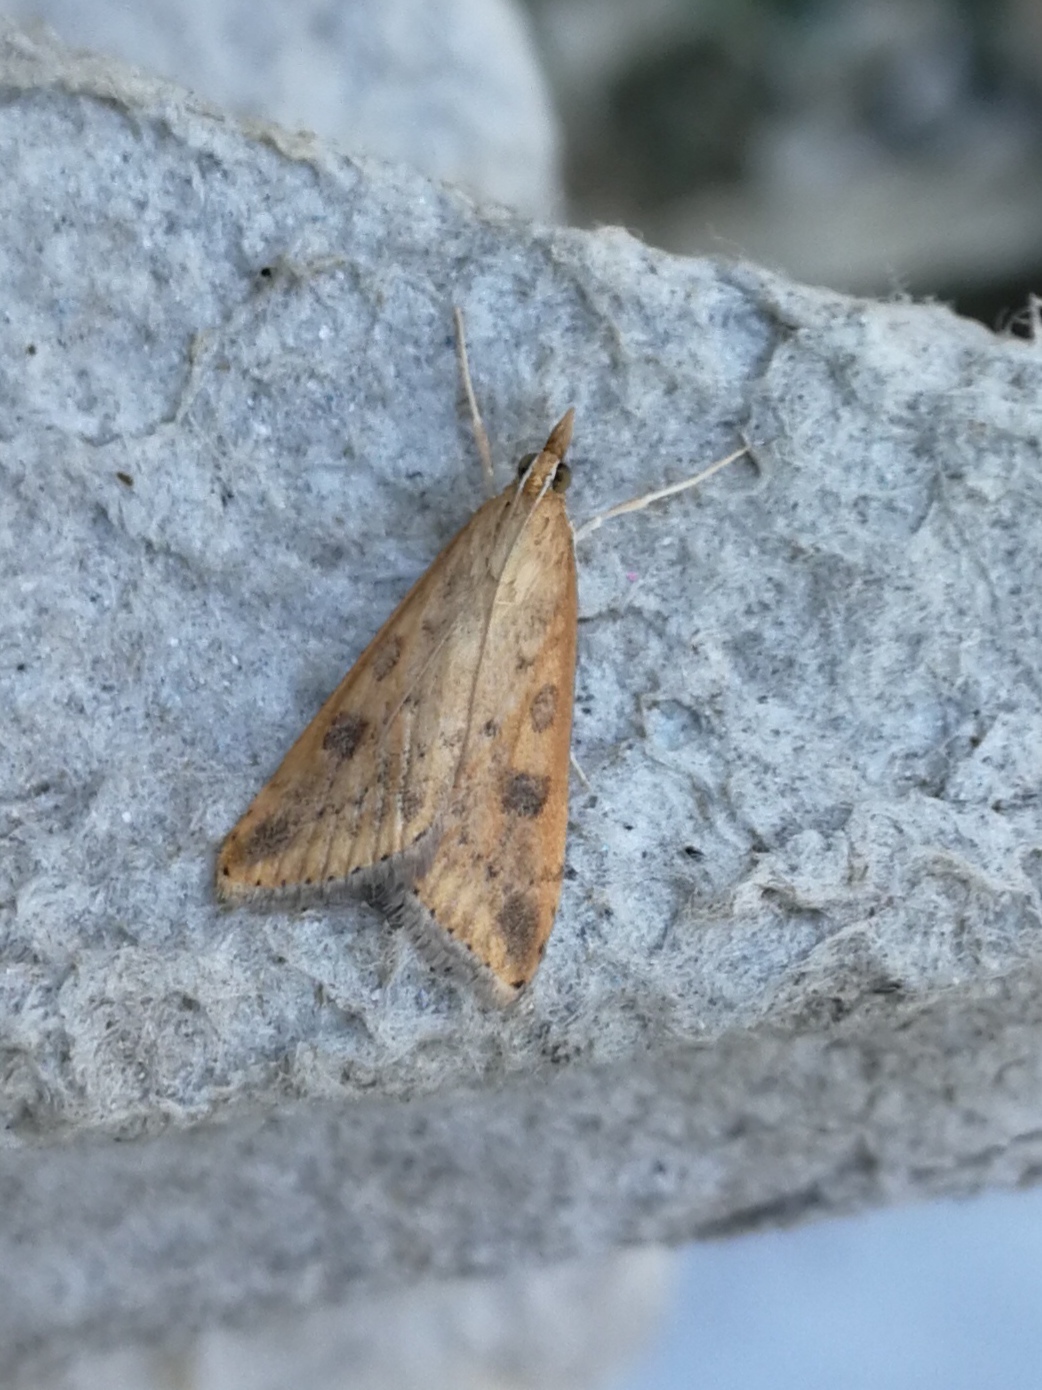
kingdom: Animalia
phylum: Arthropoda
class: Insecta
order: Lepidoptera
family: Crambidae
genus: Udea
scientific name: Udea ferrugalis
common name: Rusty dot
